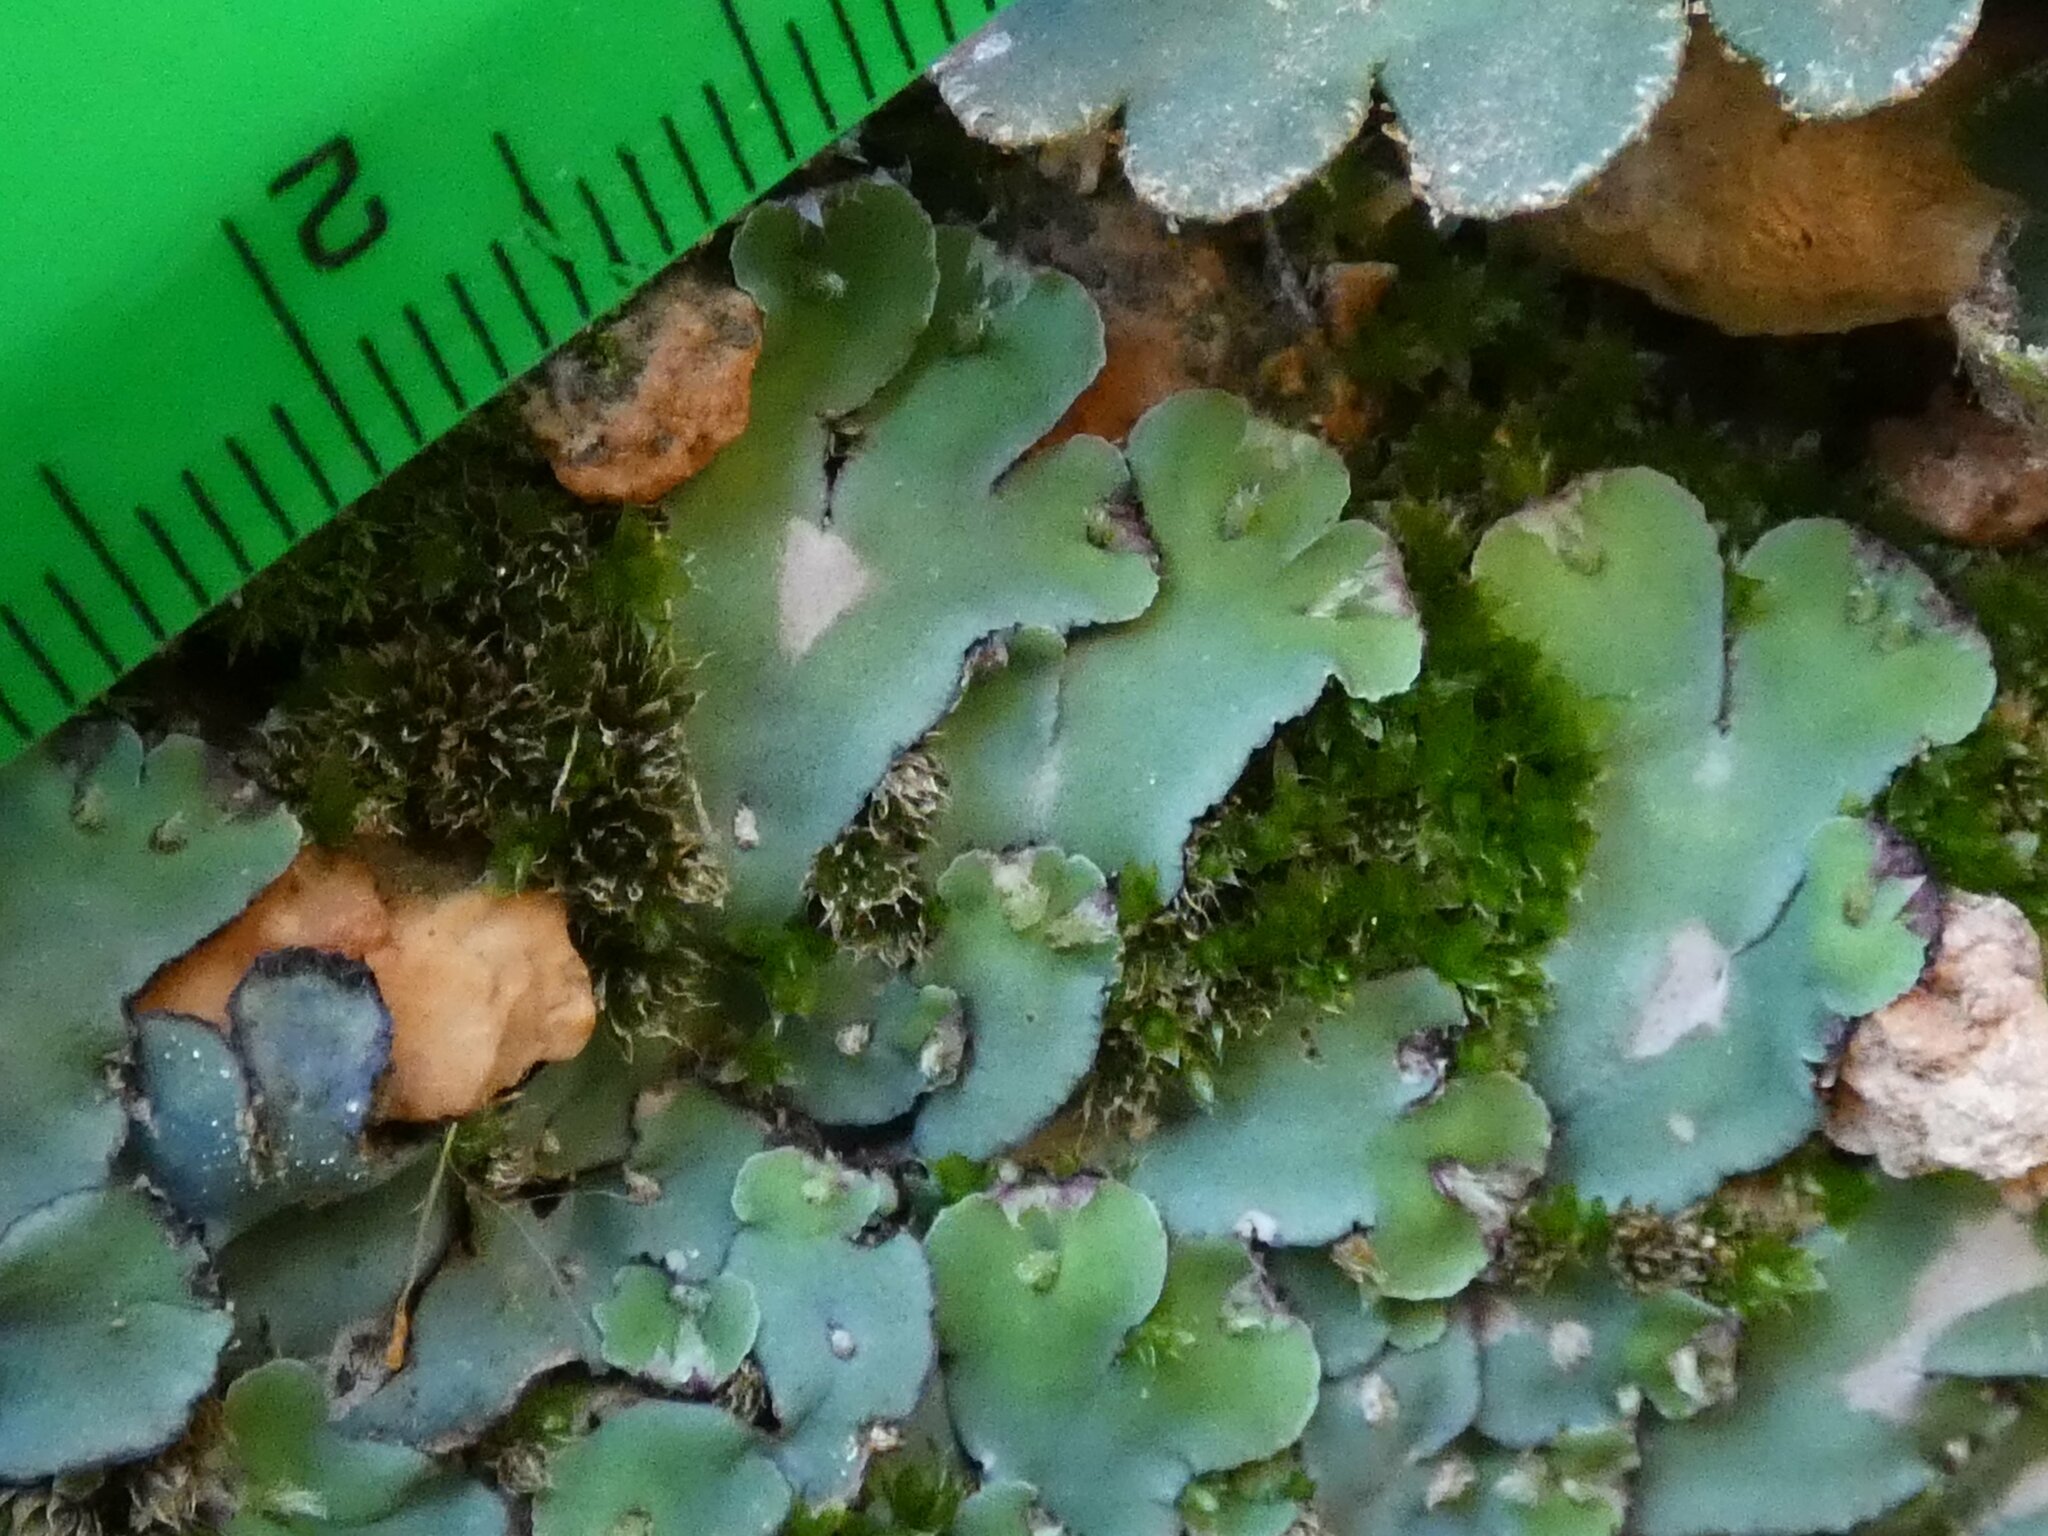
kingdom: Plantae
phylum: Marchantiophyta
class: Marchantiopsida
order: Marchantiales
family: Aytoniaceae
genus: Plagiochasma
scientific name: Plagiochasma rupestre
